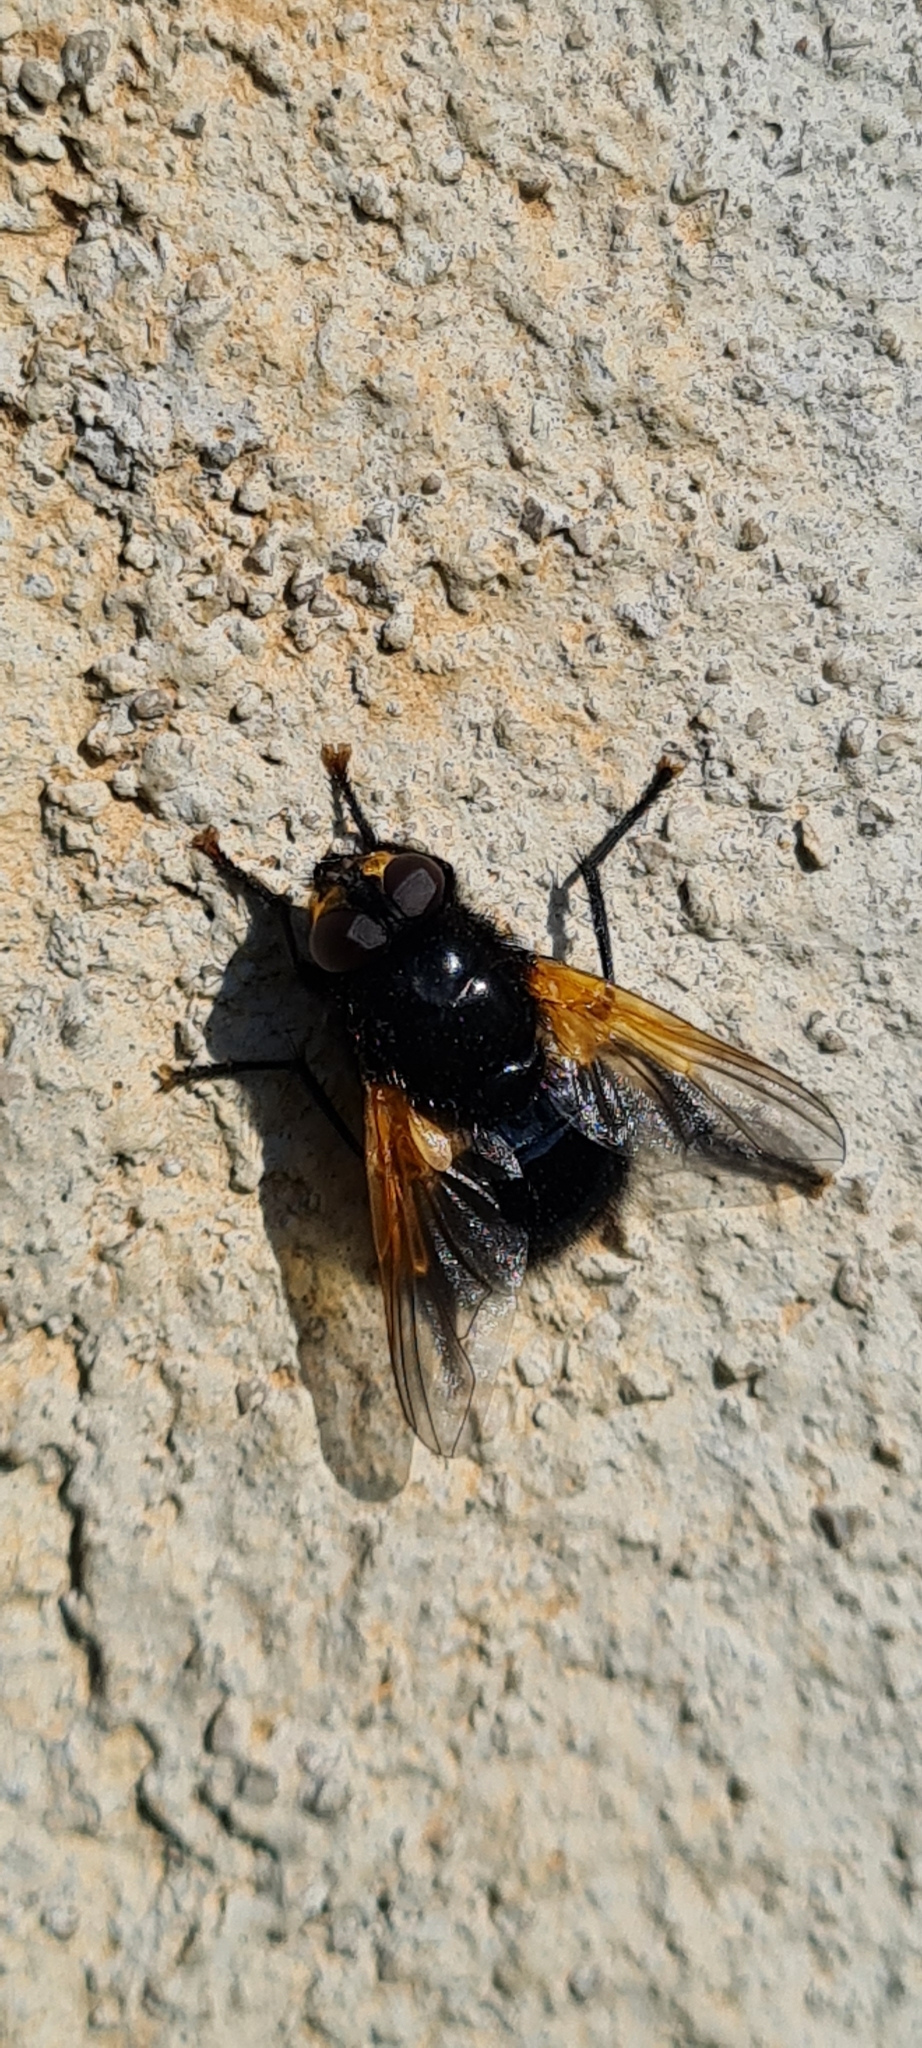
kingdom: Animalia
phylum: Arthropoda
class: Insecta
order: Diptera
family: Muscidae
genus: Mesembrina
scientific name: Mesembrina meridiana
